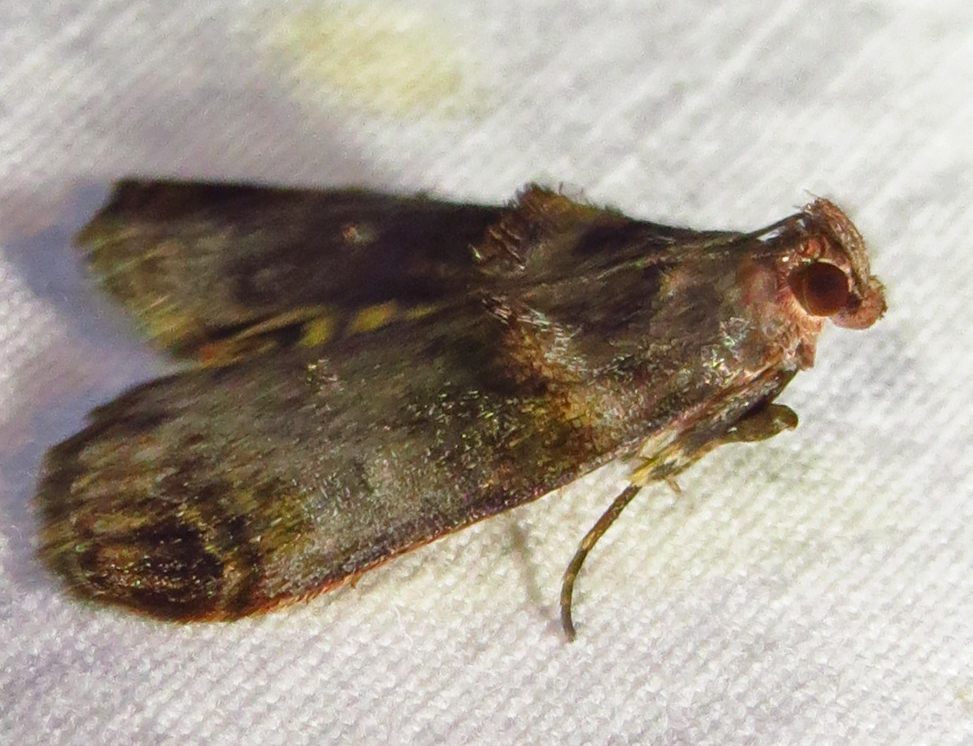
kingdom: Animalia
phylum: Arthropoda
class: Insecta
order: Lepidoptera
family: Pyralidae
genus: Oneida
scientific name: Oneida lunulalis
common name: Orange-tufted oneida moth
